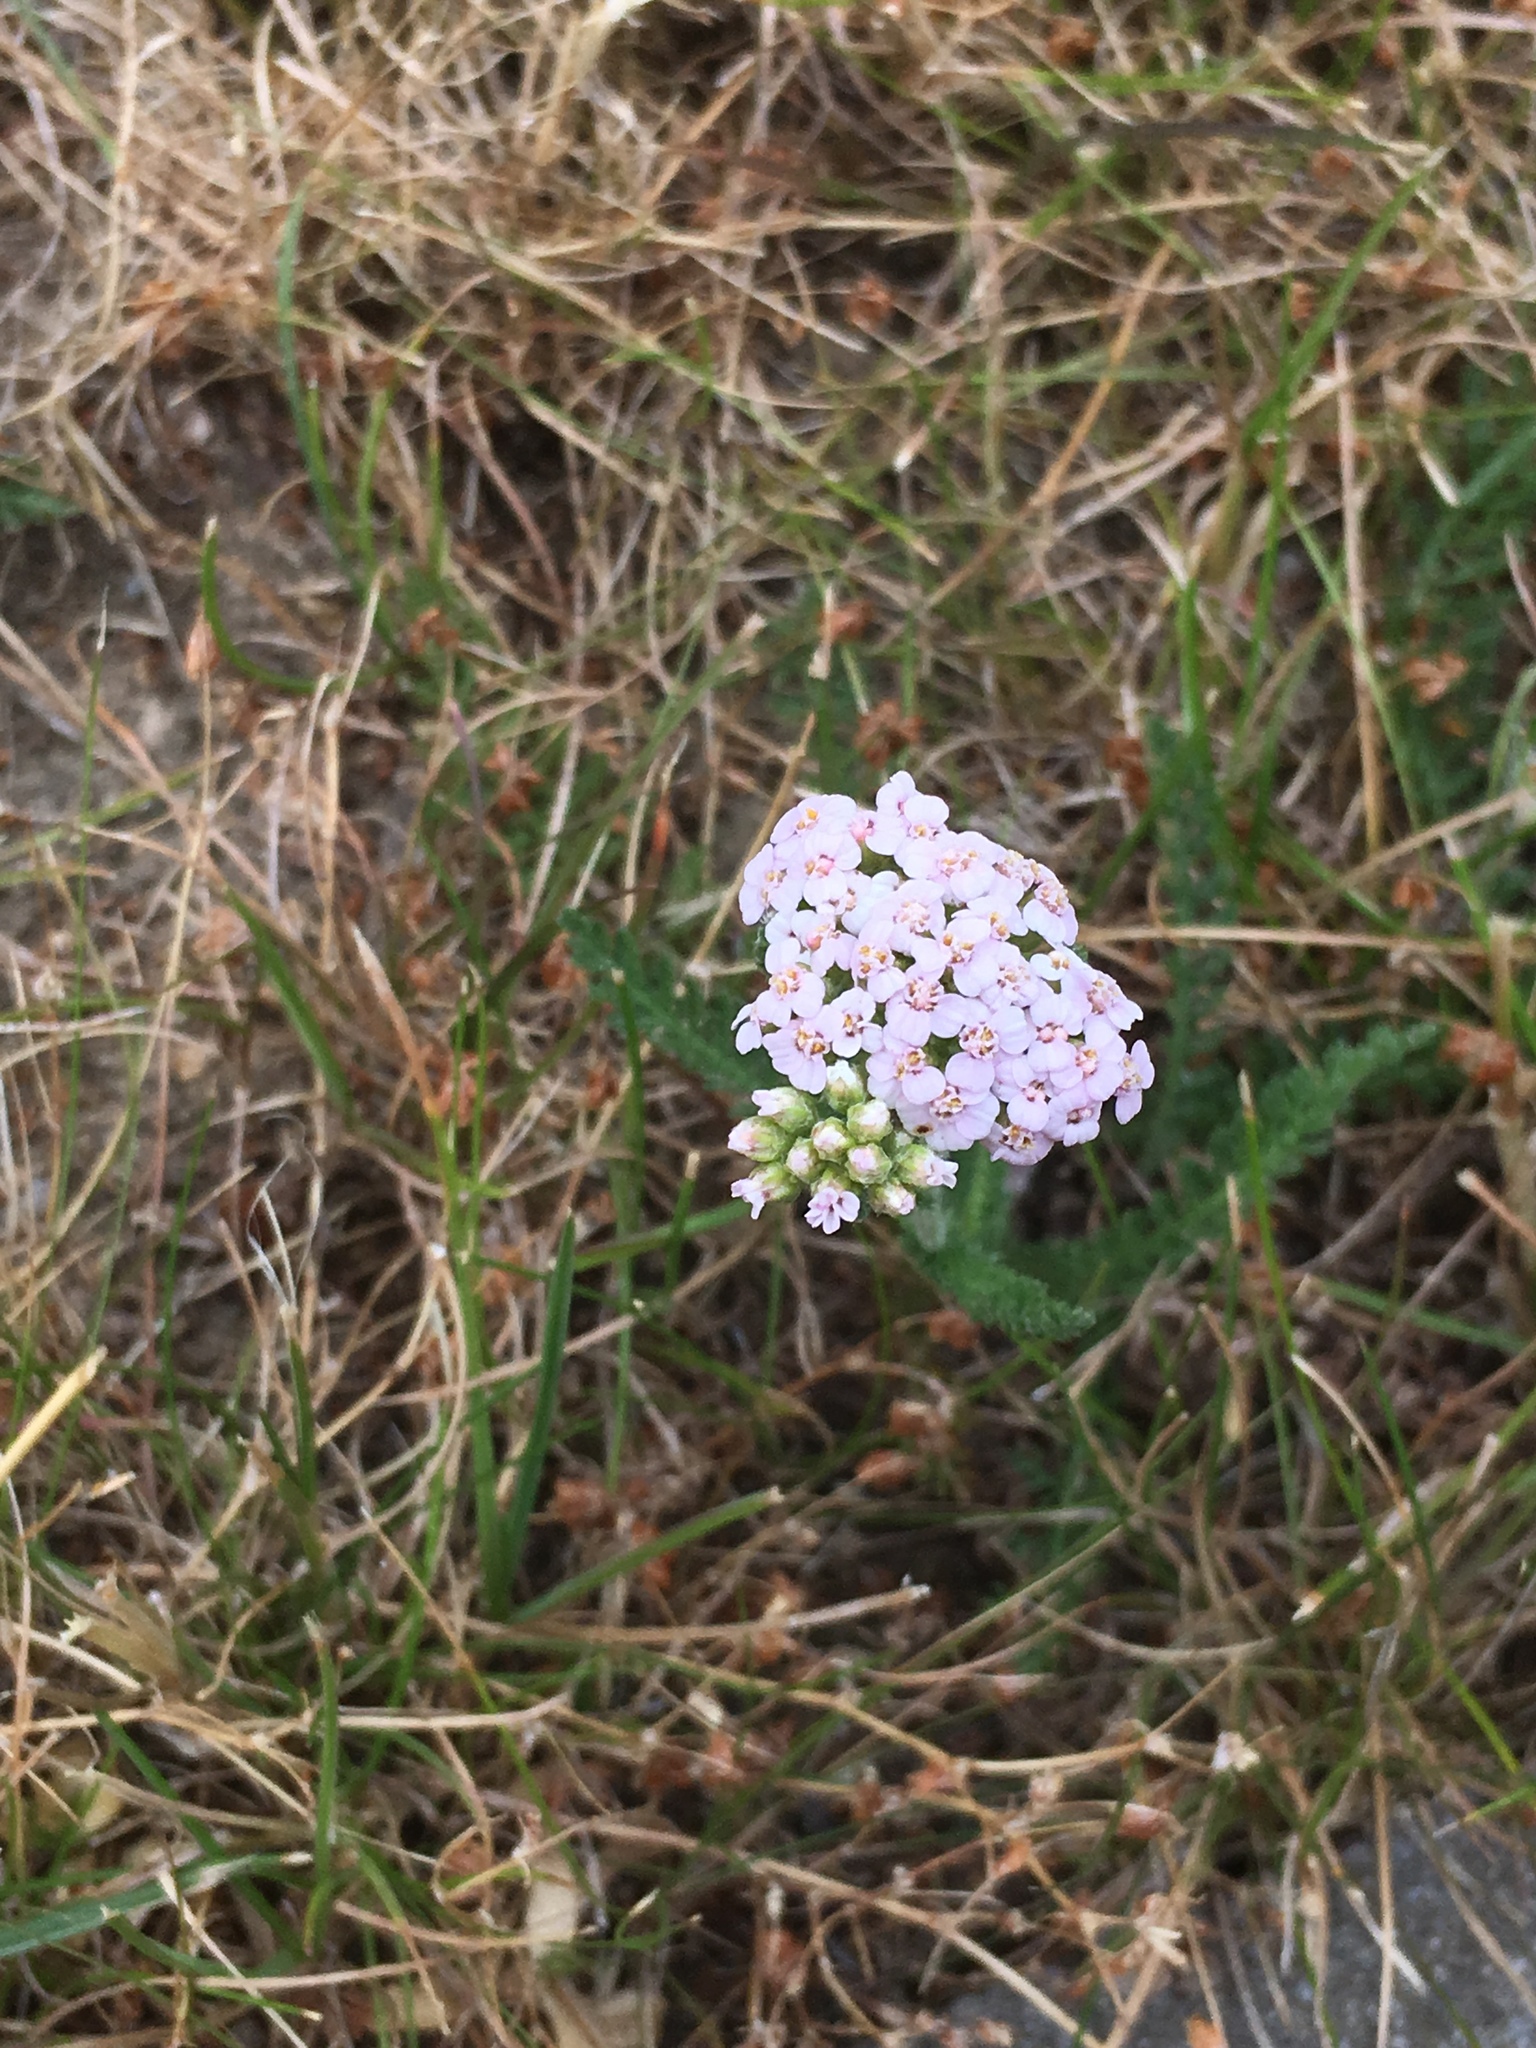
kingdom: Plantae
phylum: Tracheophyta
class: Magnoliopsida
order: Asterales
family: Asteraceae
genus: Achillea
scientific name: Achillea millefolium
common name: Yarrow
